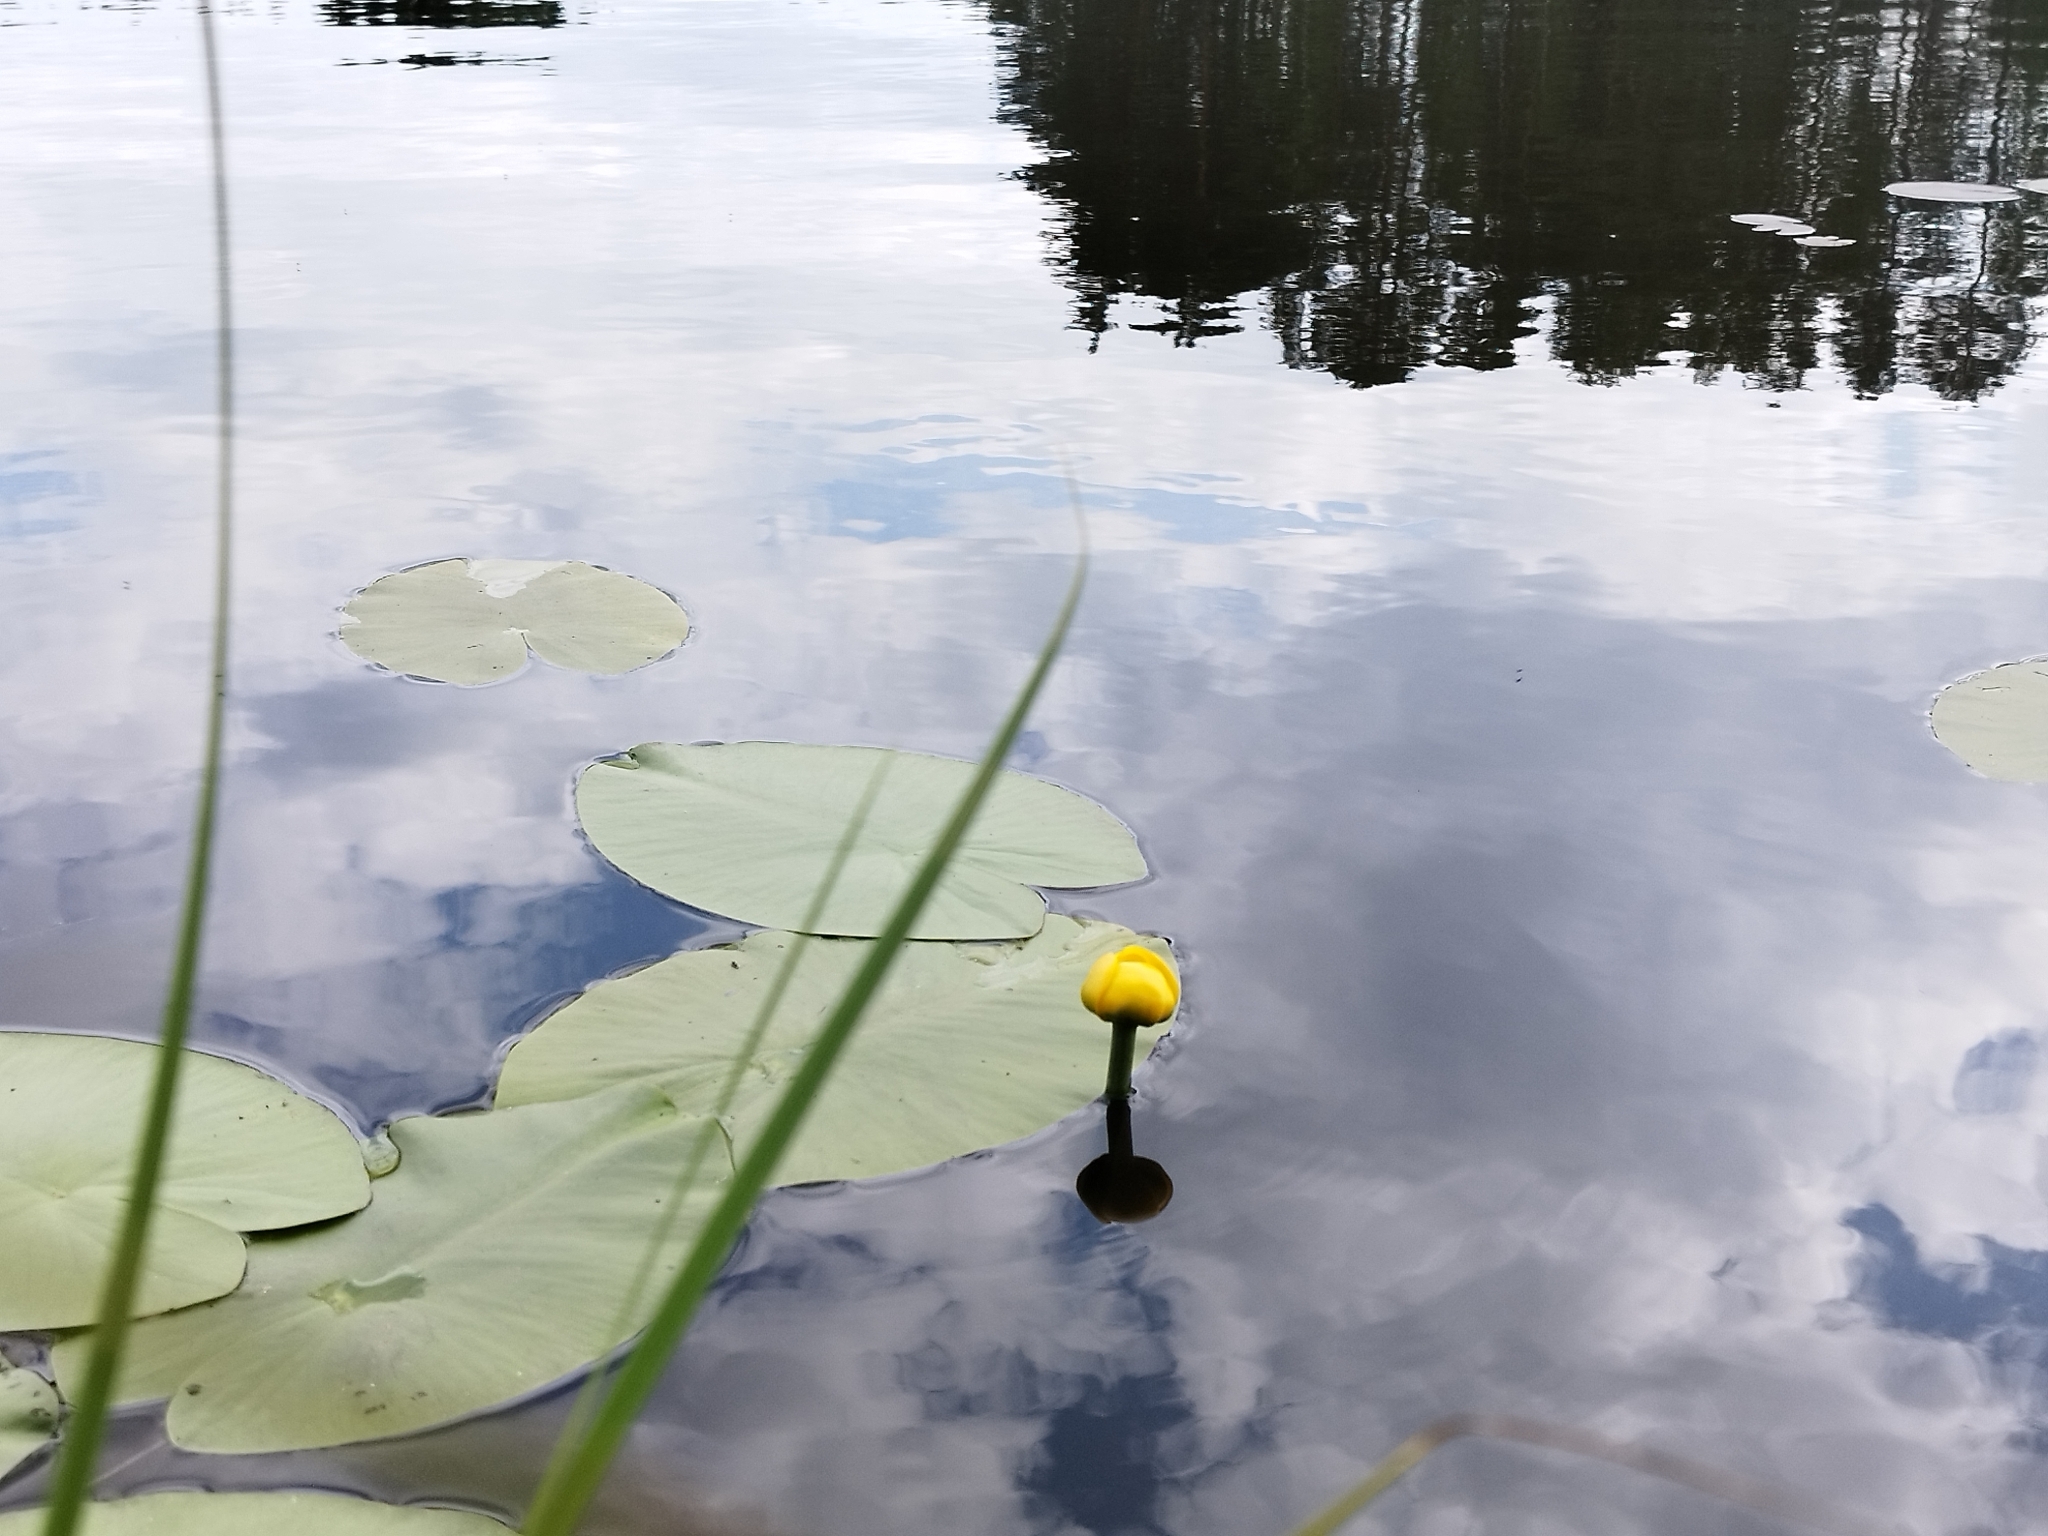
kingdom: Plantae
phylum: Tracheophyta
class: Magnoliopsida
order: Nymphaeales
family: Nymphaeaceae
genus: Nuphar
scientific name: Nuphar lutea
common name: Yellow water-lily
